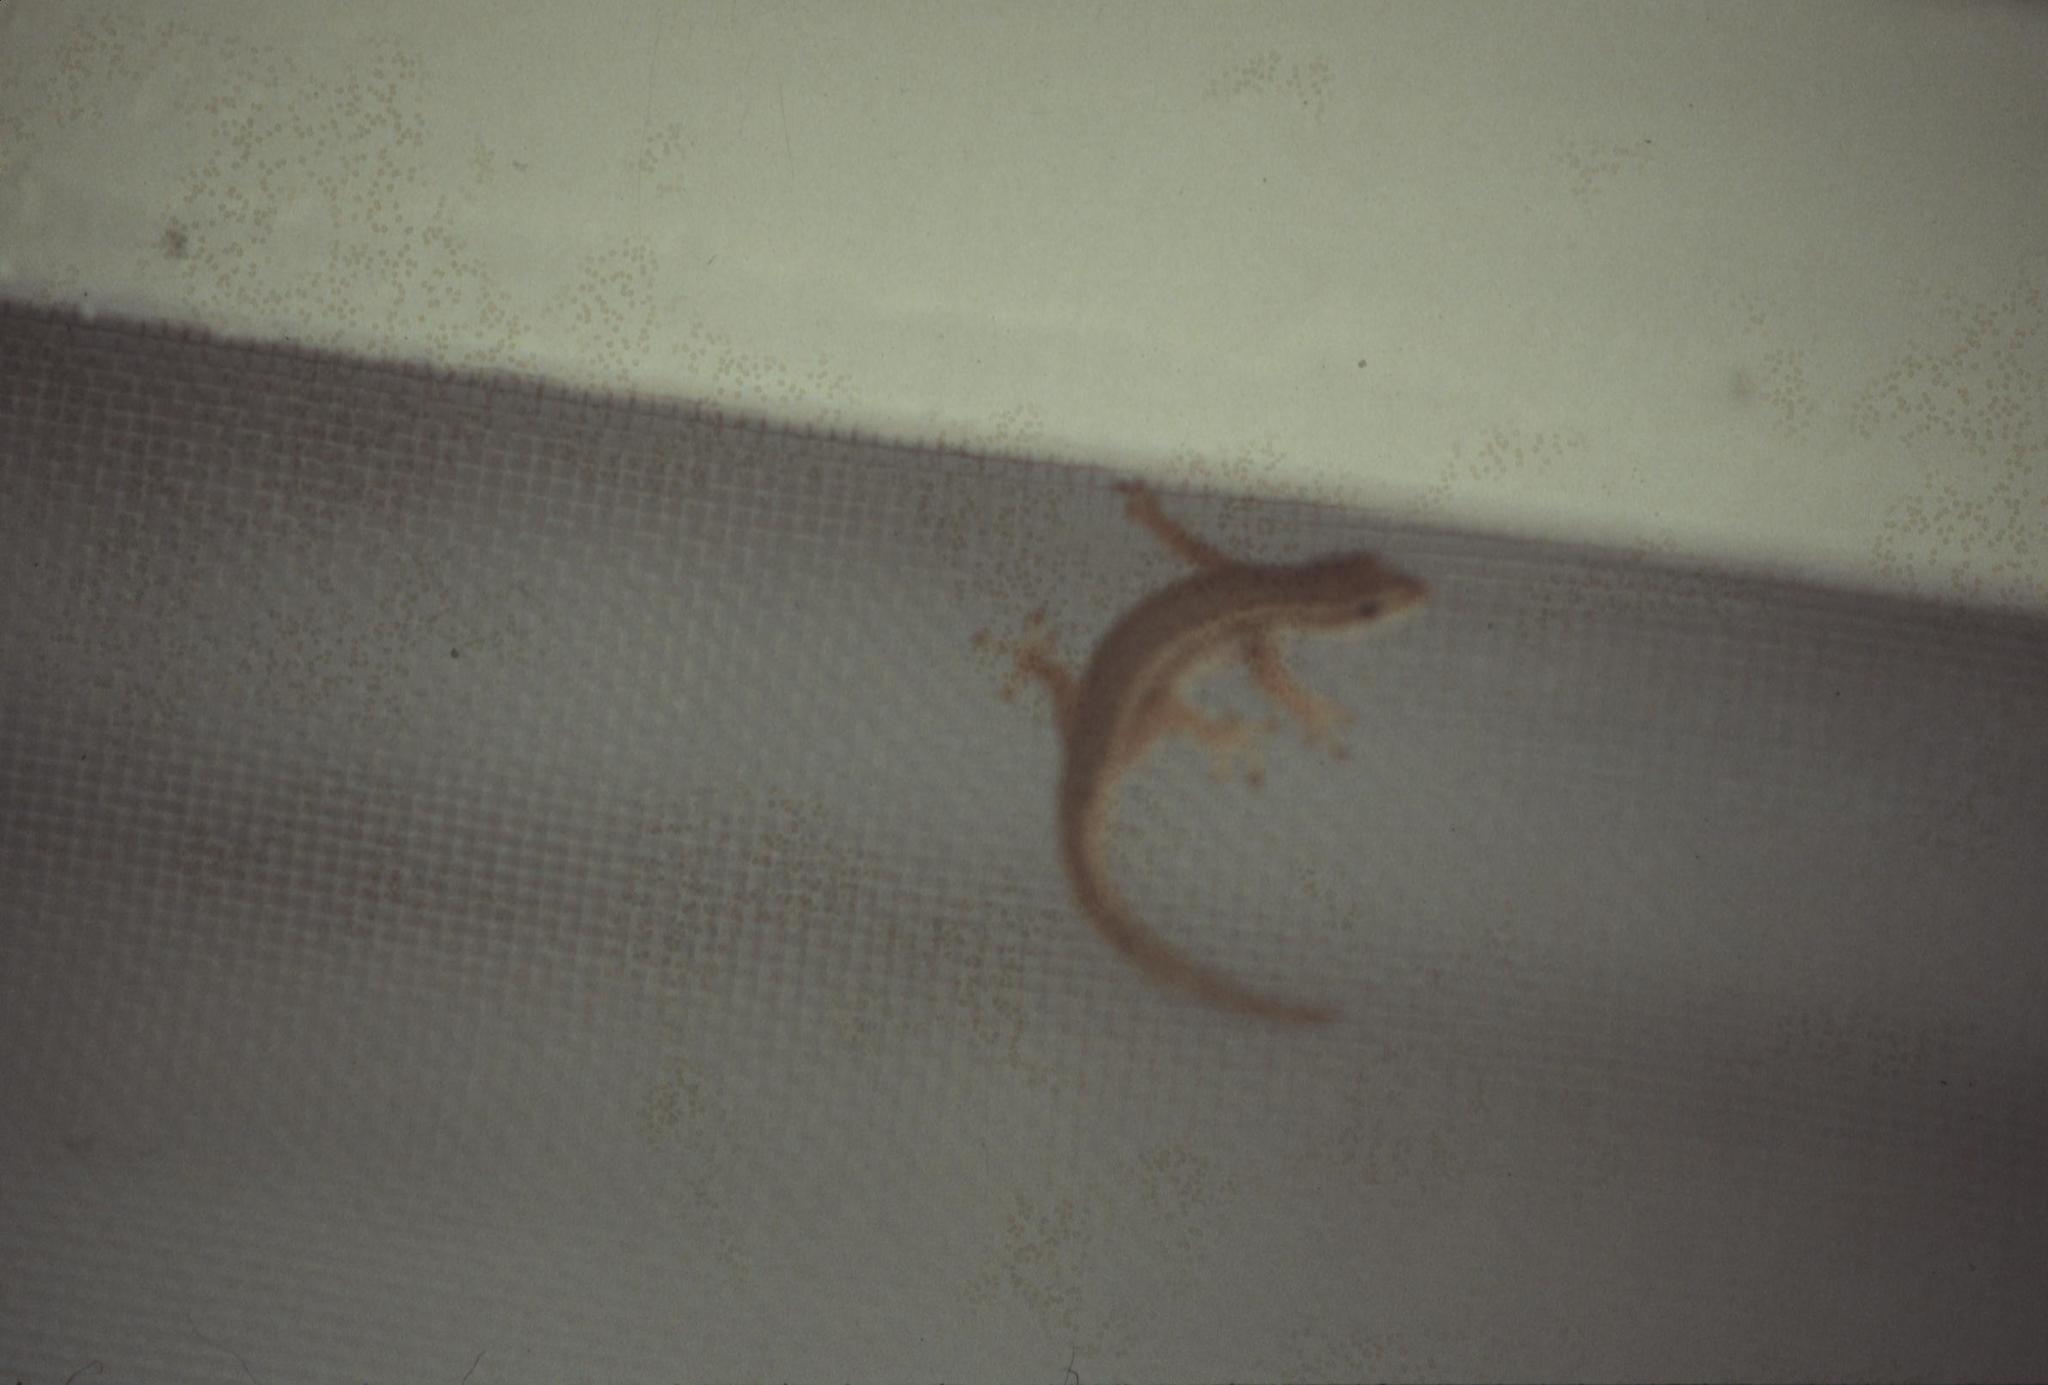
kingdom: Animalia
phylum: Chordata
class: Squamata
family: Gekkonidae
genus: Lygodactylus
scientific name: Lygodactylus capensis
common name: Cape dwarf gecko
